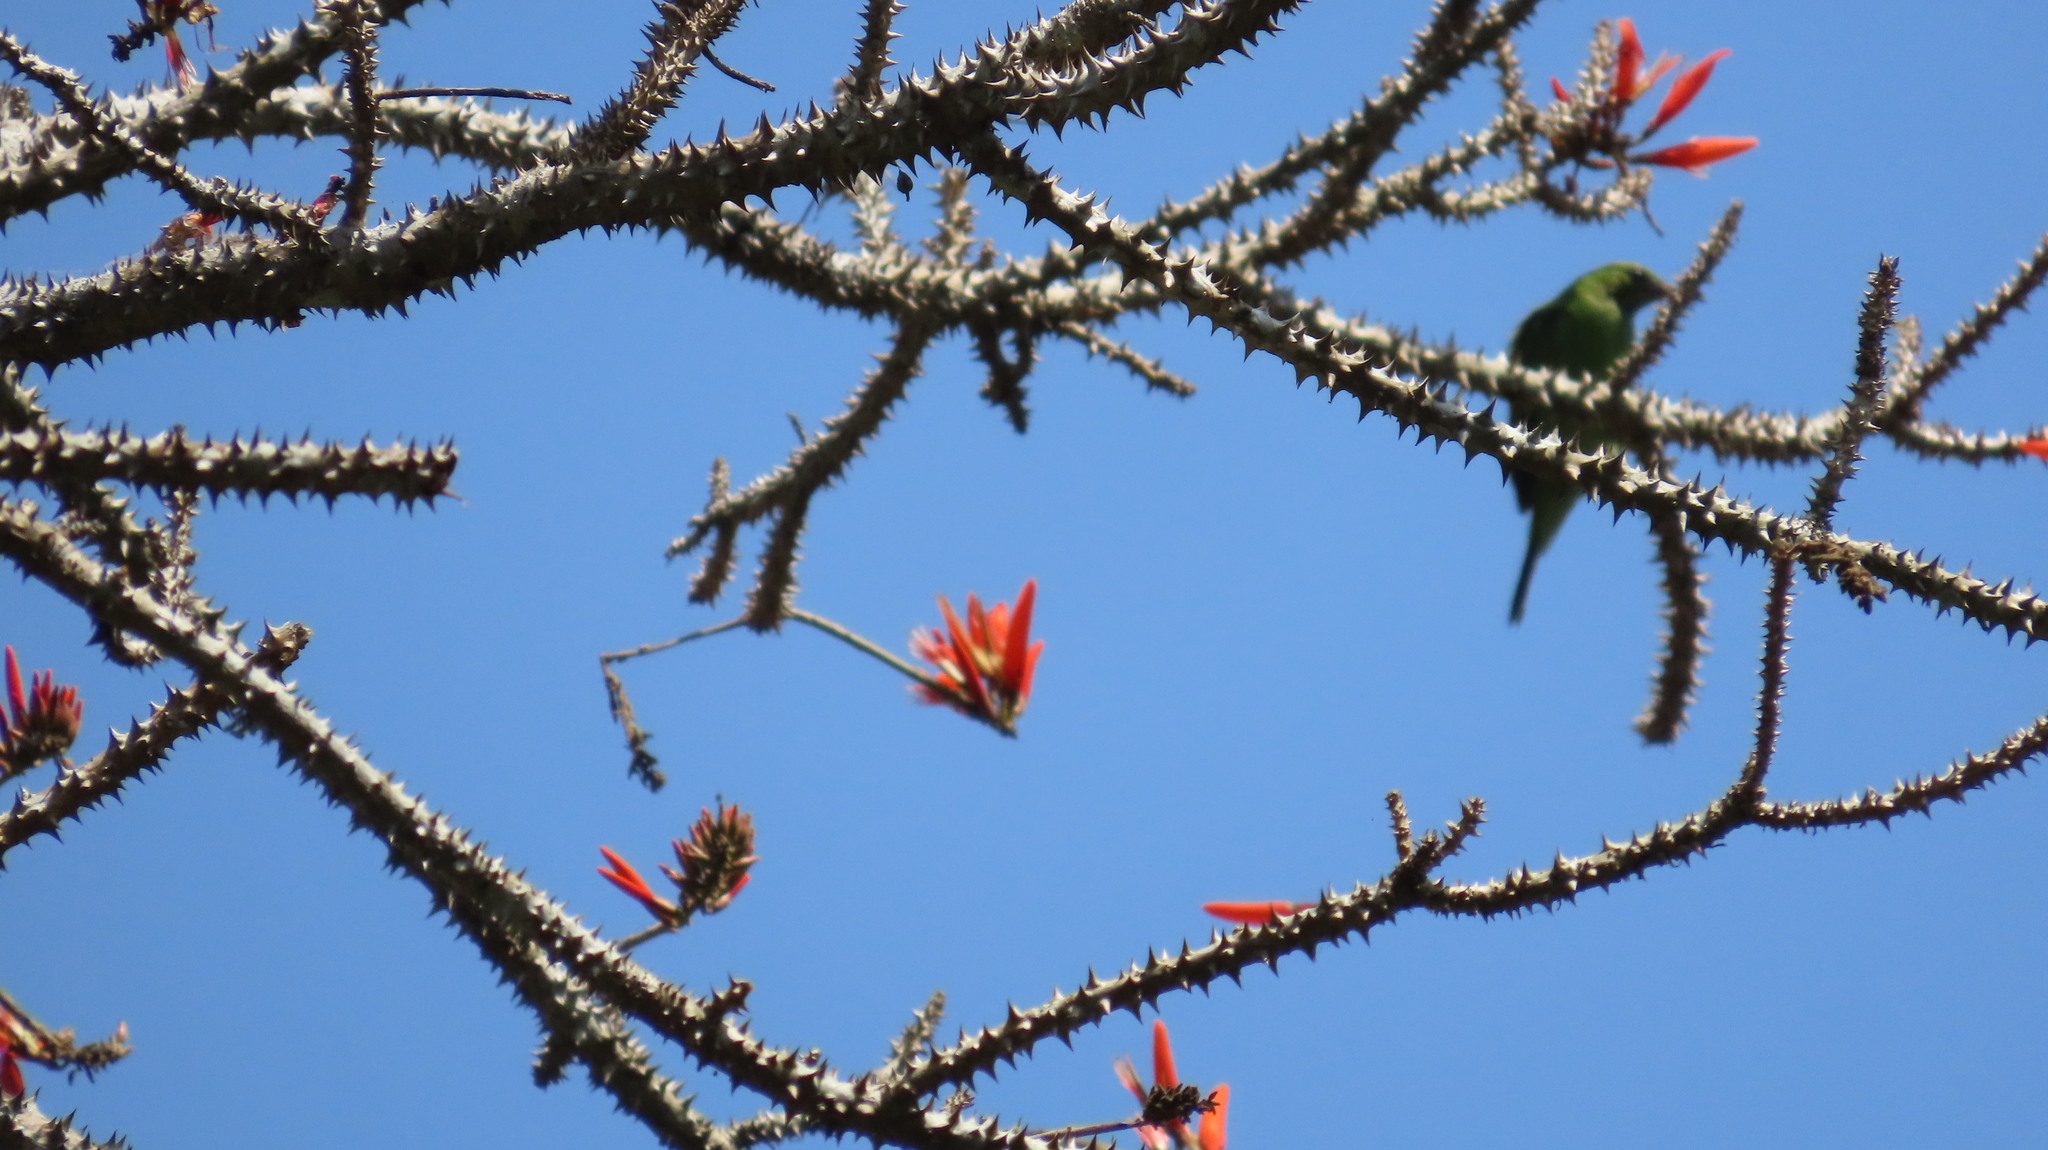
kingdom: Animalia
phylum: Chordata
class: Aves
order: Passeriformes
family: Chloropseidae
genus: Chloropsis
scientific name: Chloropsis aurifrons
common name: Golden-fronted leafbird
